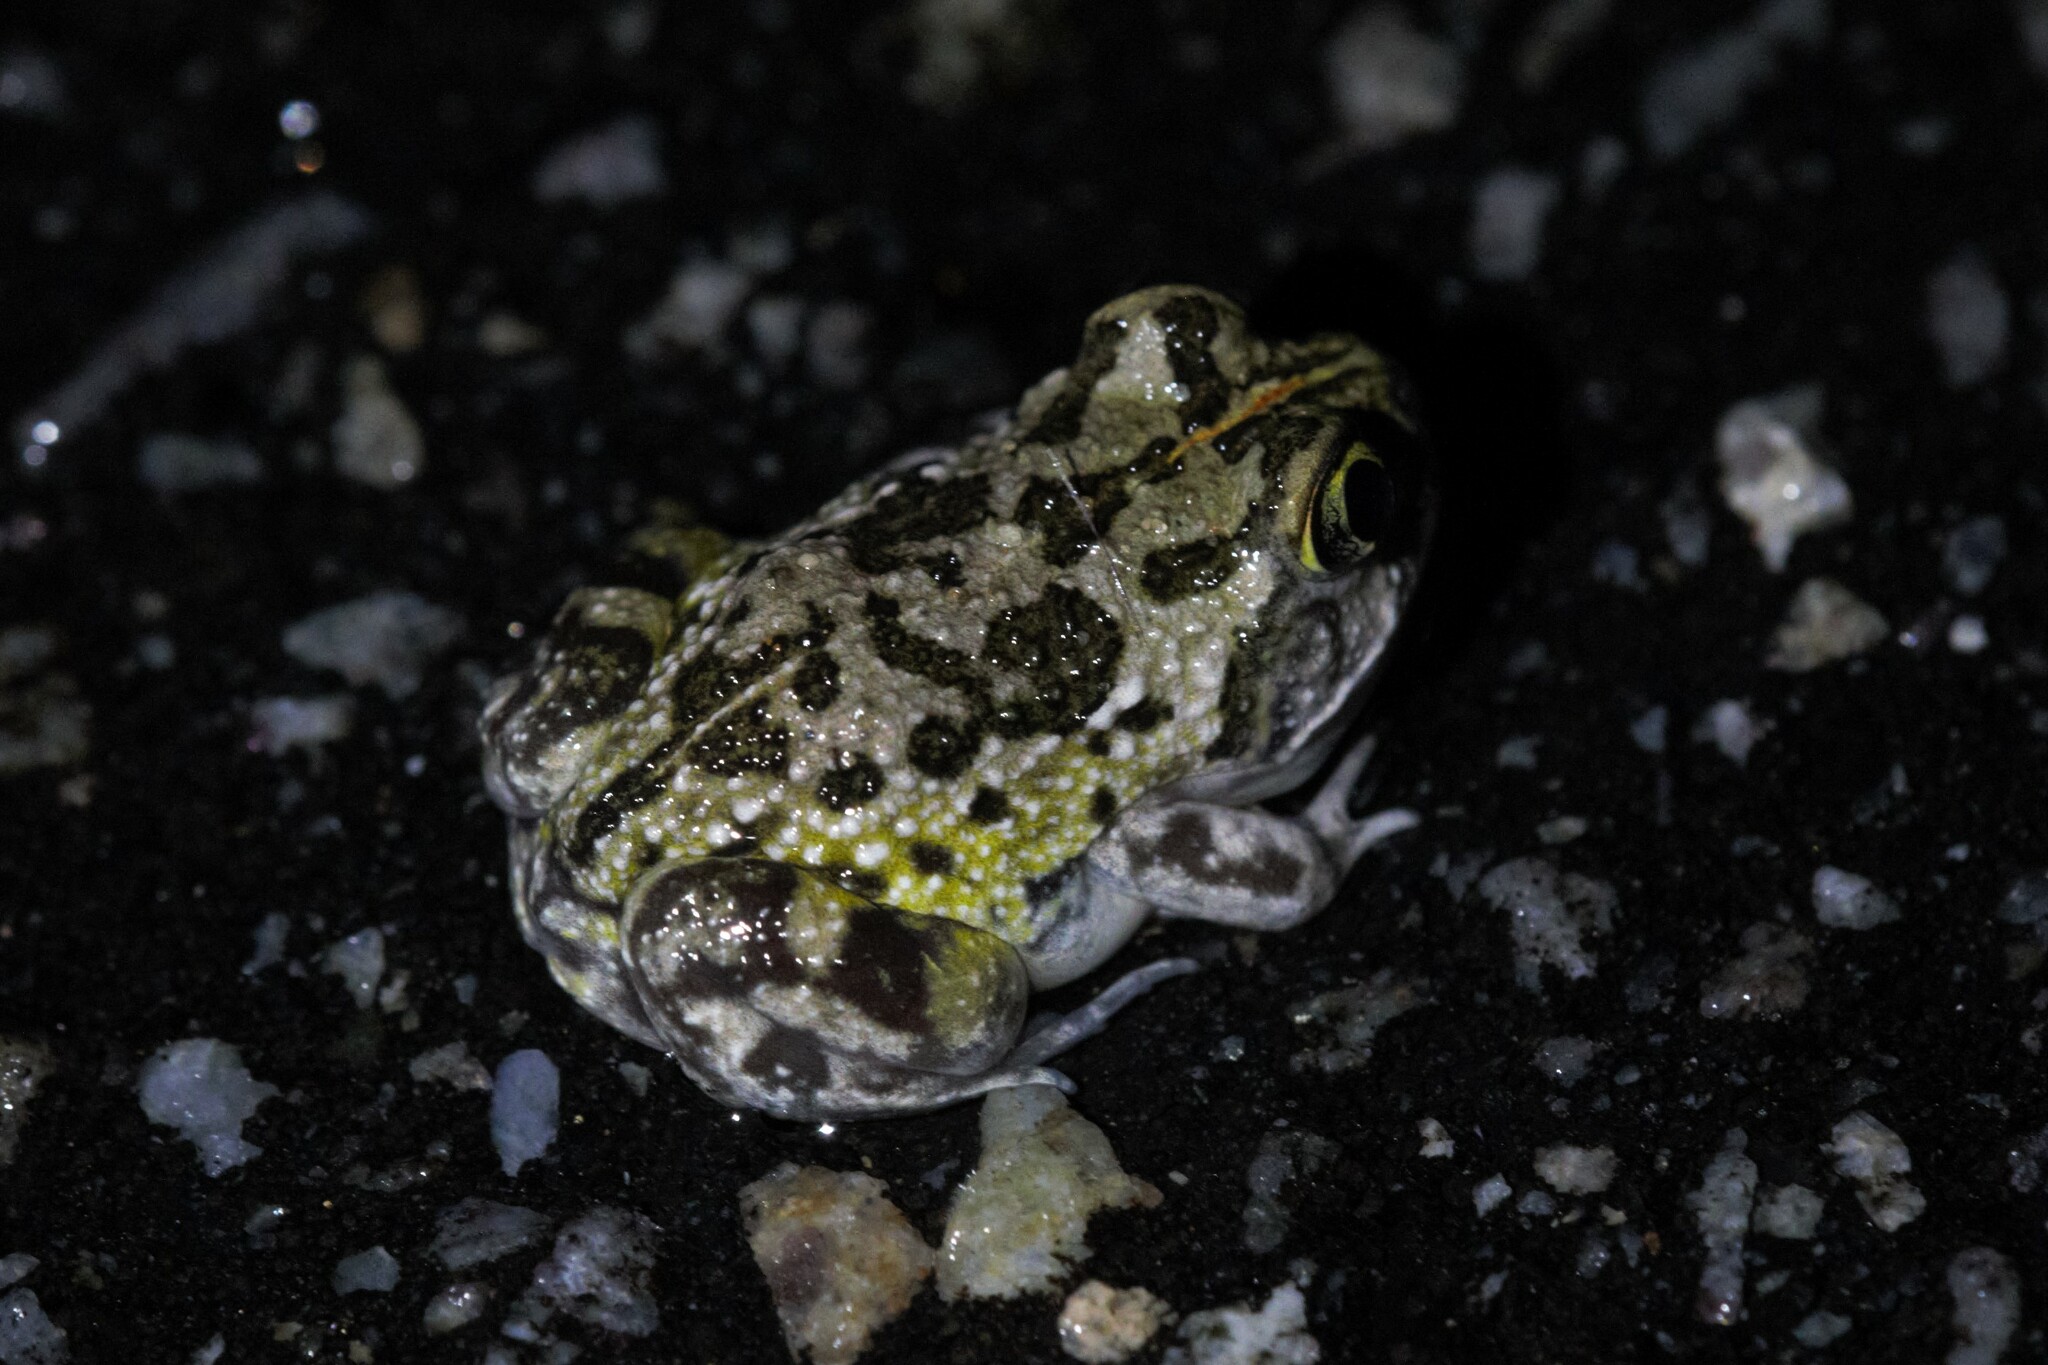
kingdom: Animalia
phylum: Chordata
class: Amphibia
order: Anura
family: Limnodynastidae
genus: Neobatrachus
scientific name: Neobatrachus pelobatoides
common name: Humming frog
